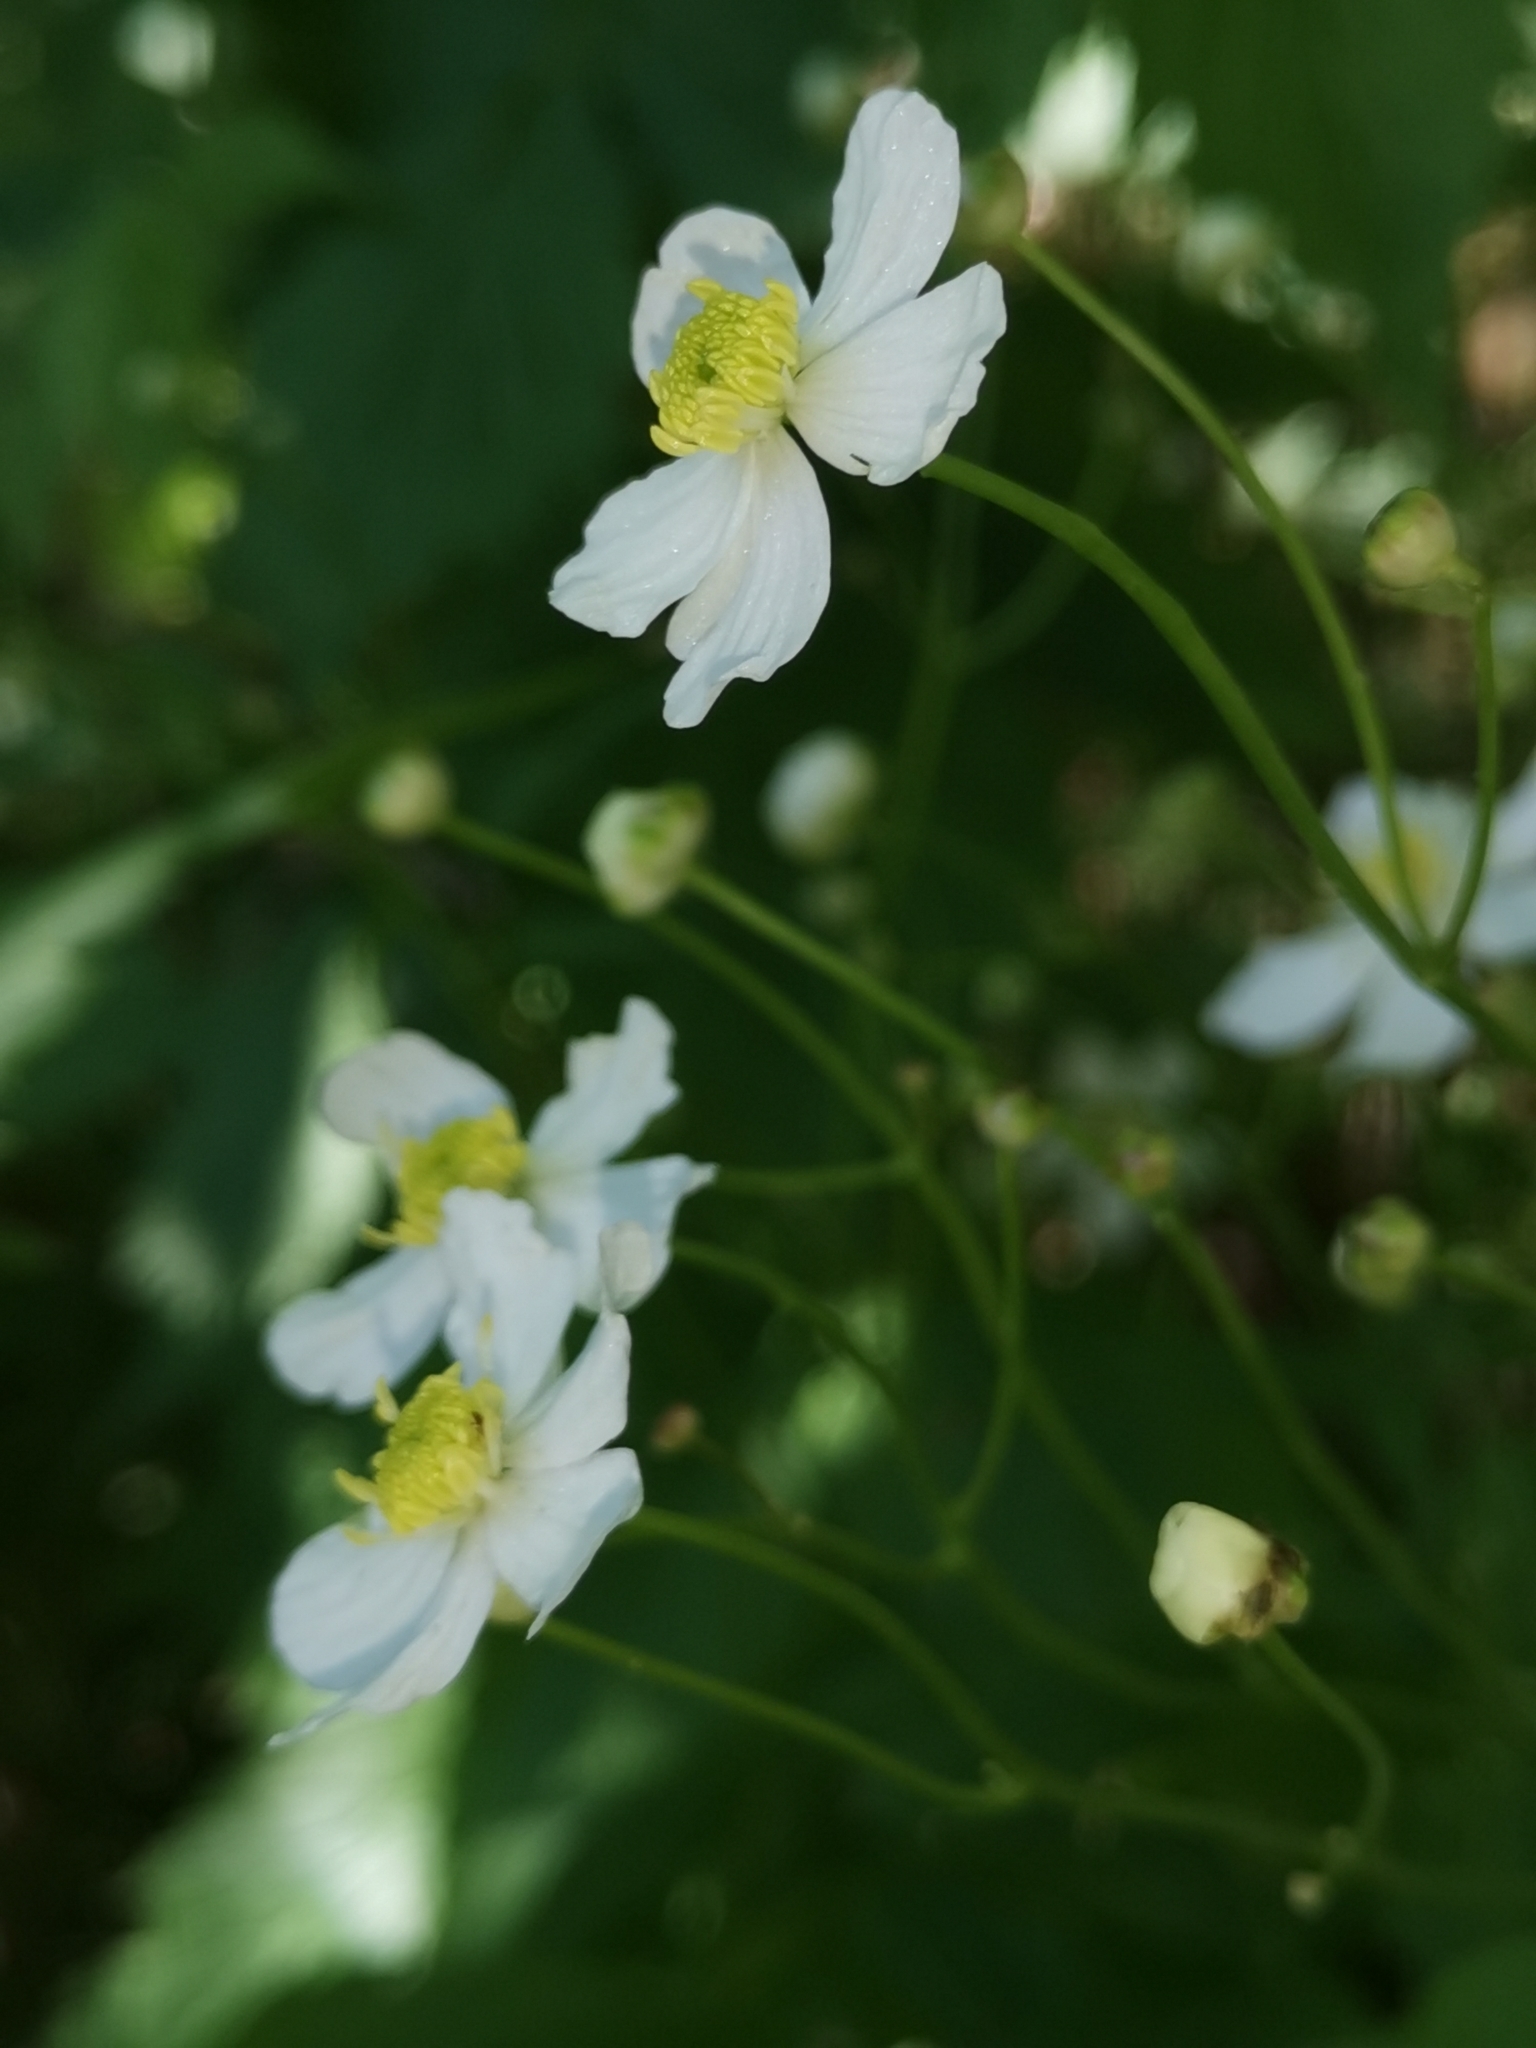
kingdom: Plantae
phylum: Tracheophyta
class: Magnoliopsida
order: Ranunculales
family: Ranunculaceae
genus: Ranunculus
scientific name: Ranunculus platanifolius
